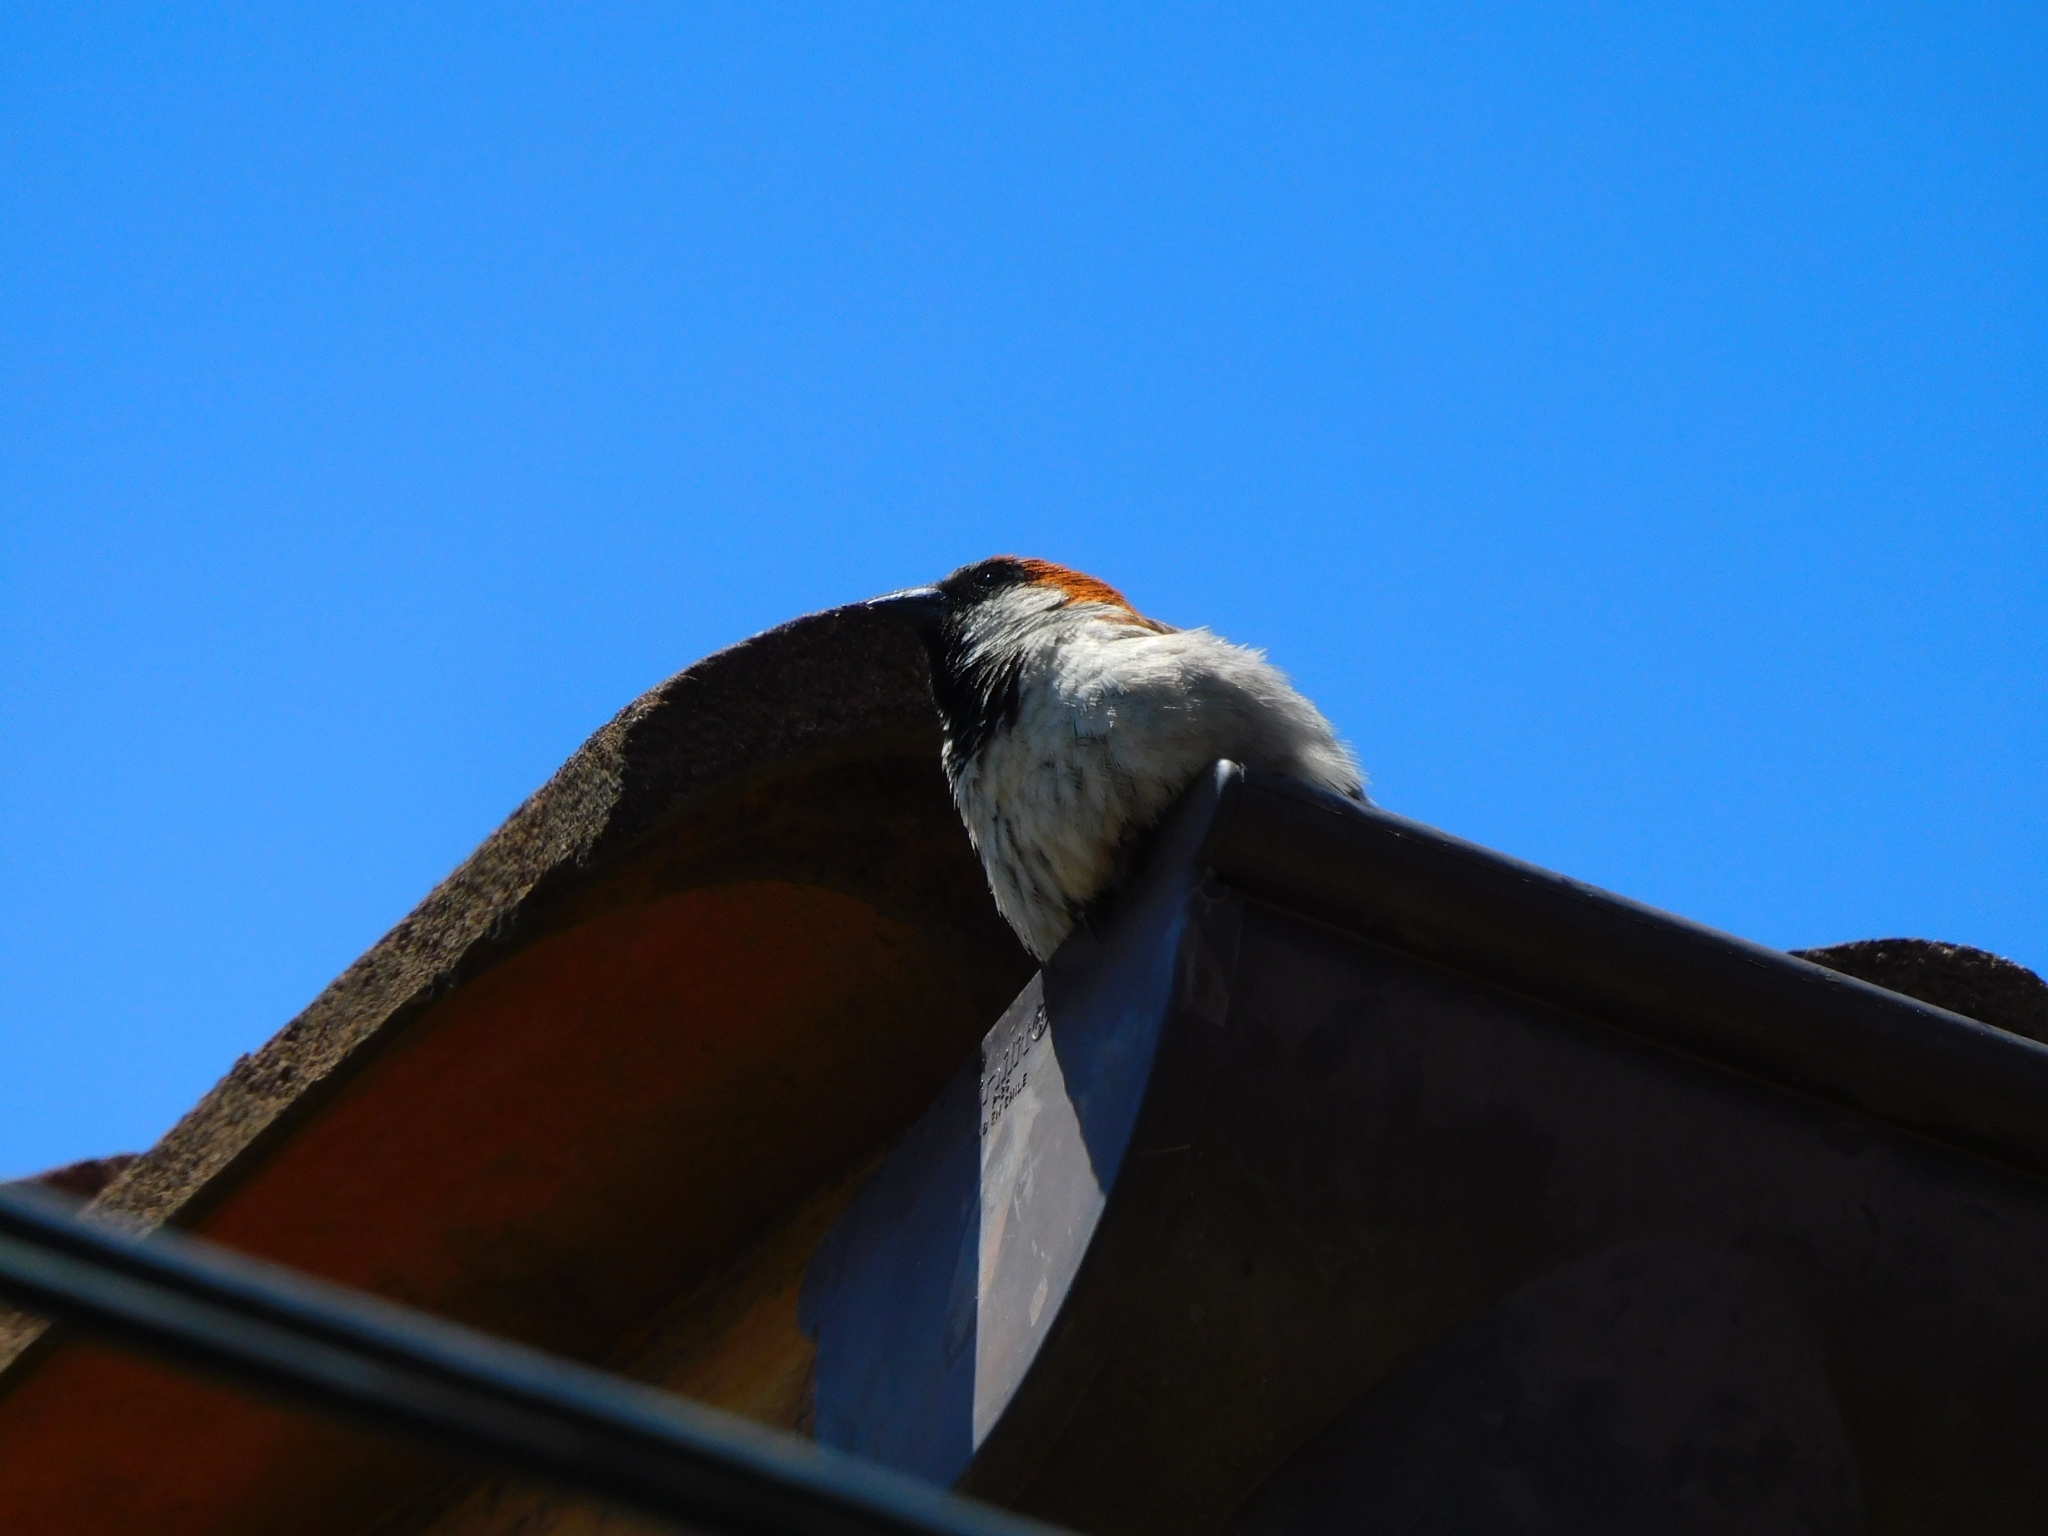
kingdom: Animalia
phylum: Chordata
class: Aves
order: Passeriformes
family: Passeridae
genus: Passer
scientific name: Passer domesticus
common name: House sparrow
